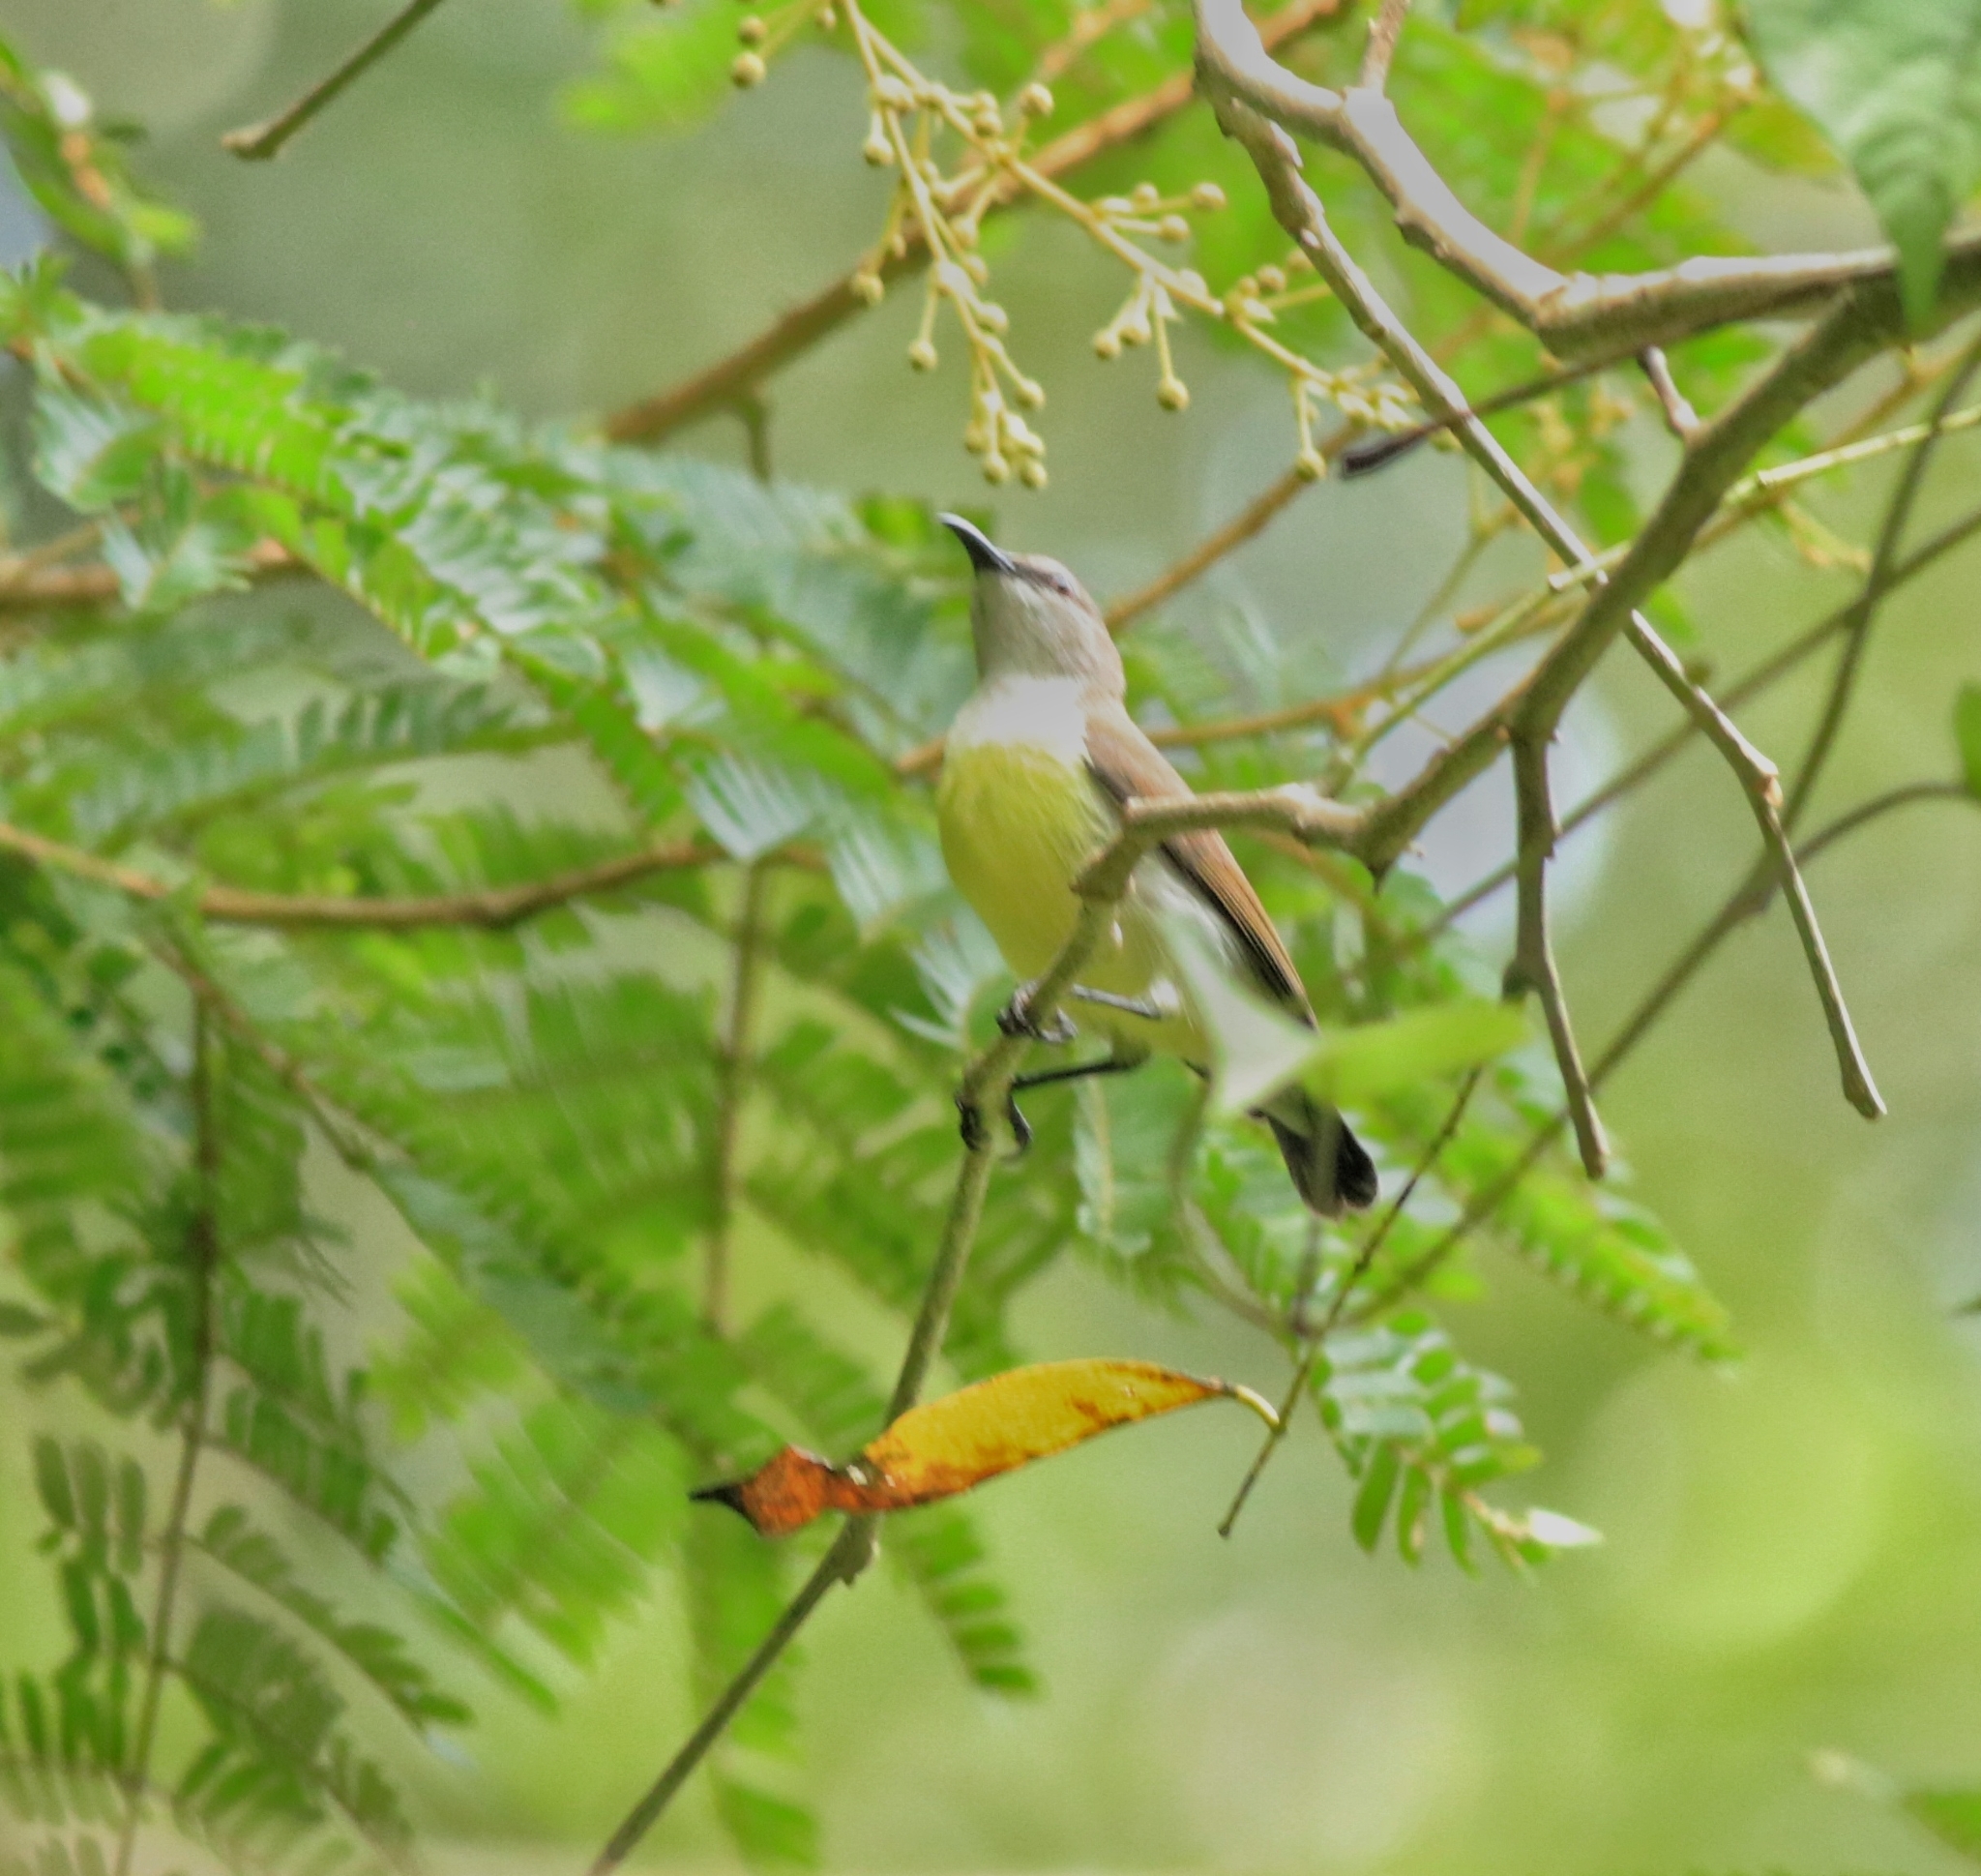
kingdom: Animalia
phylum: Chordata
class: Aves
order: Passeriformes
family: Nectariniidae
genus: Leptocoma
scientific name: Leptocoma zeylonica
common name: Purple-rumped sunbird
